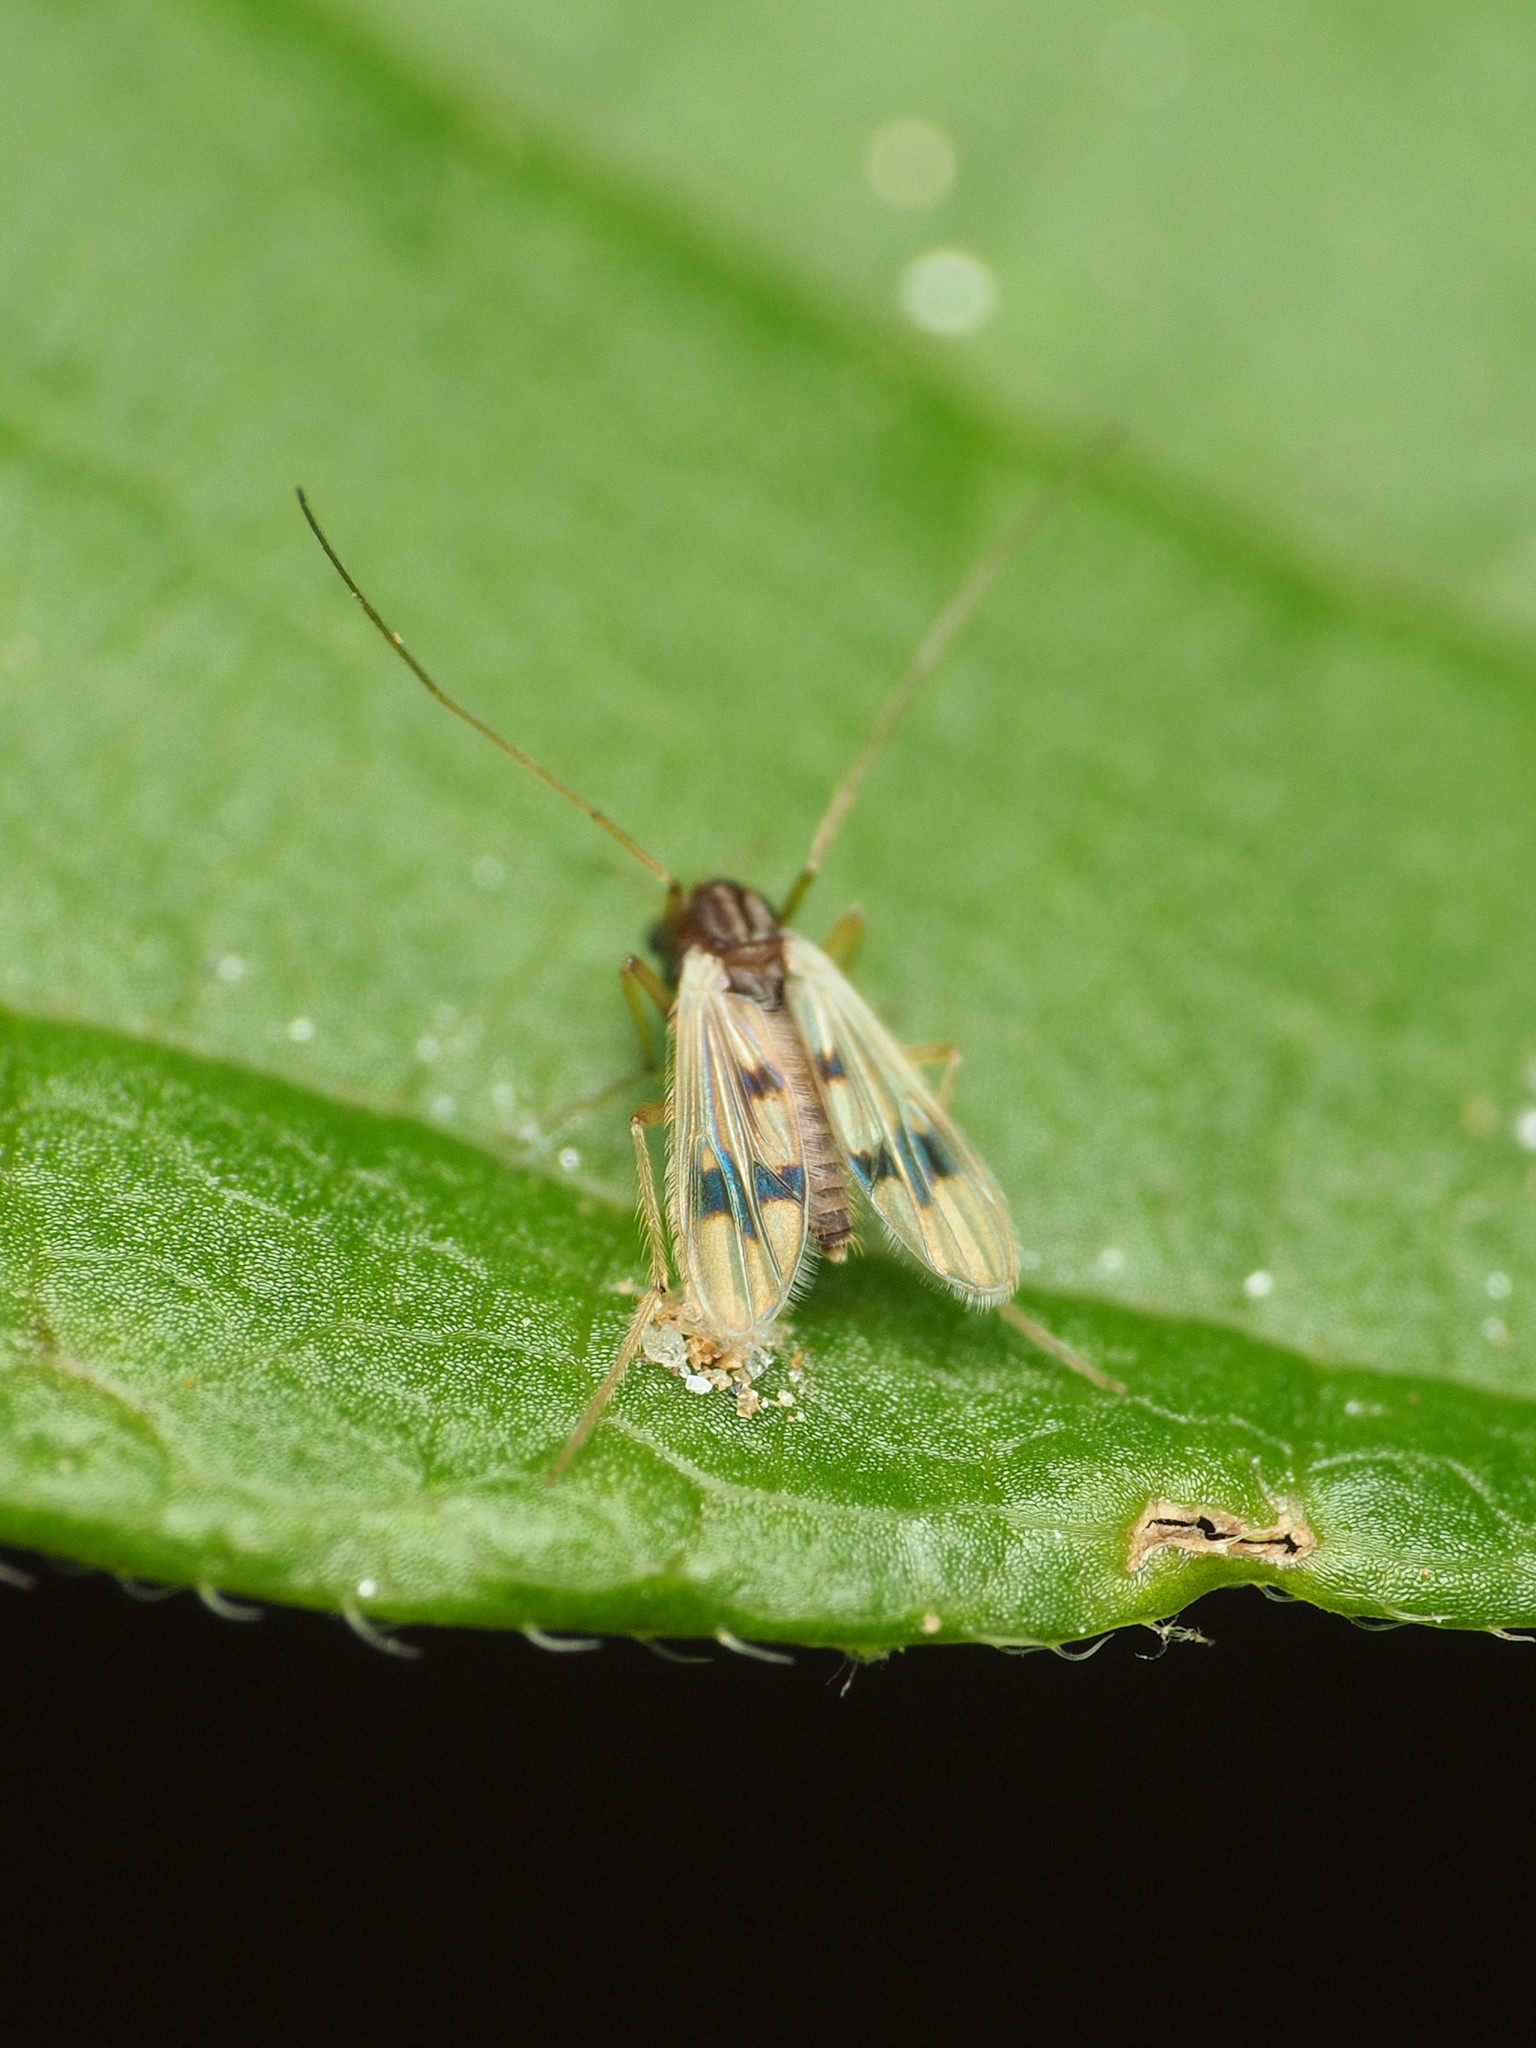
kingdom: Animalia
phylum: Arthropoda
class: Insecta
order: Diptera
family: Chironomidae
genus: Polypedilum
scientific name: Polypedilum scalaenum
